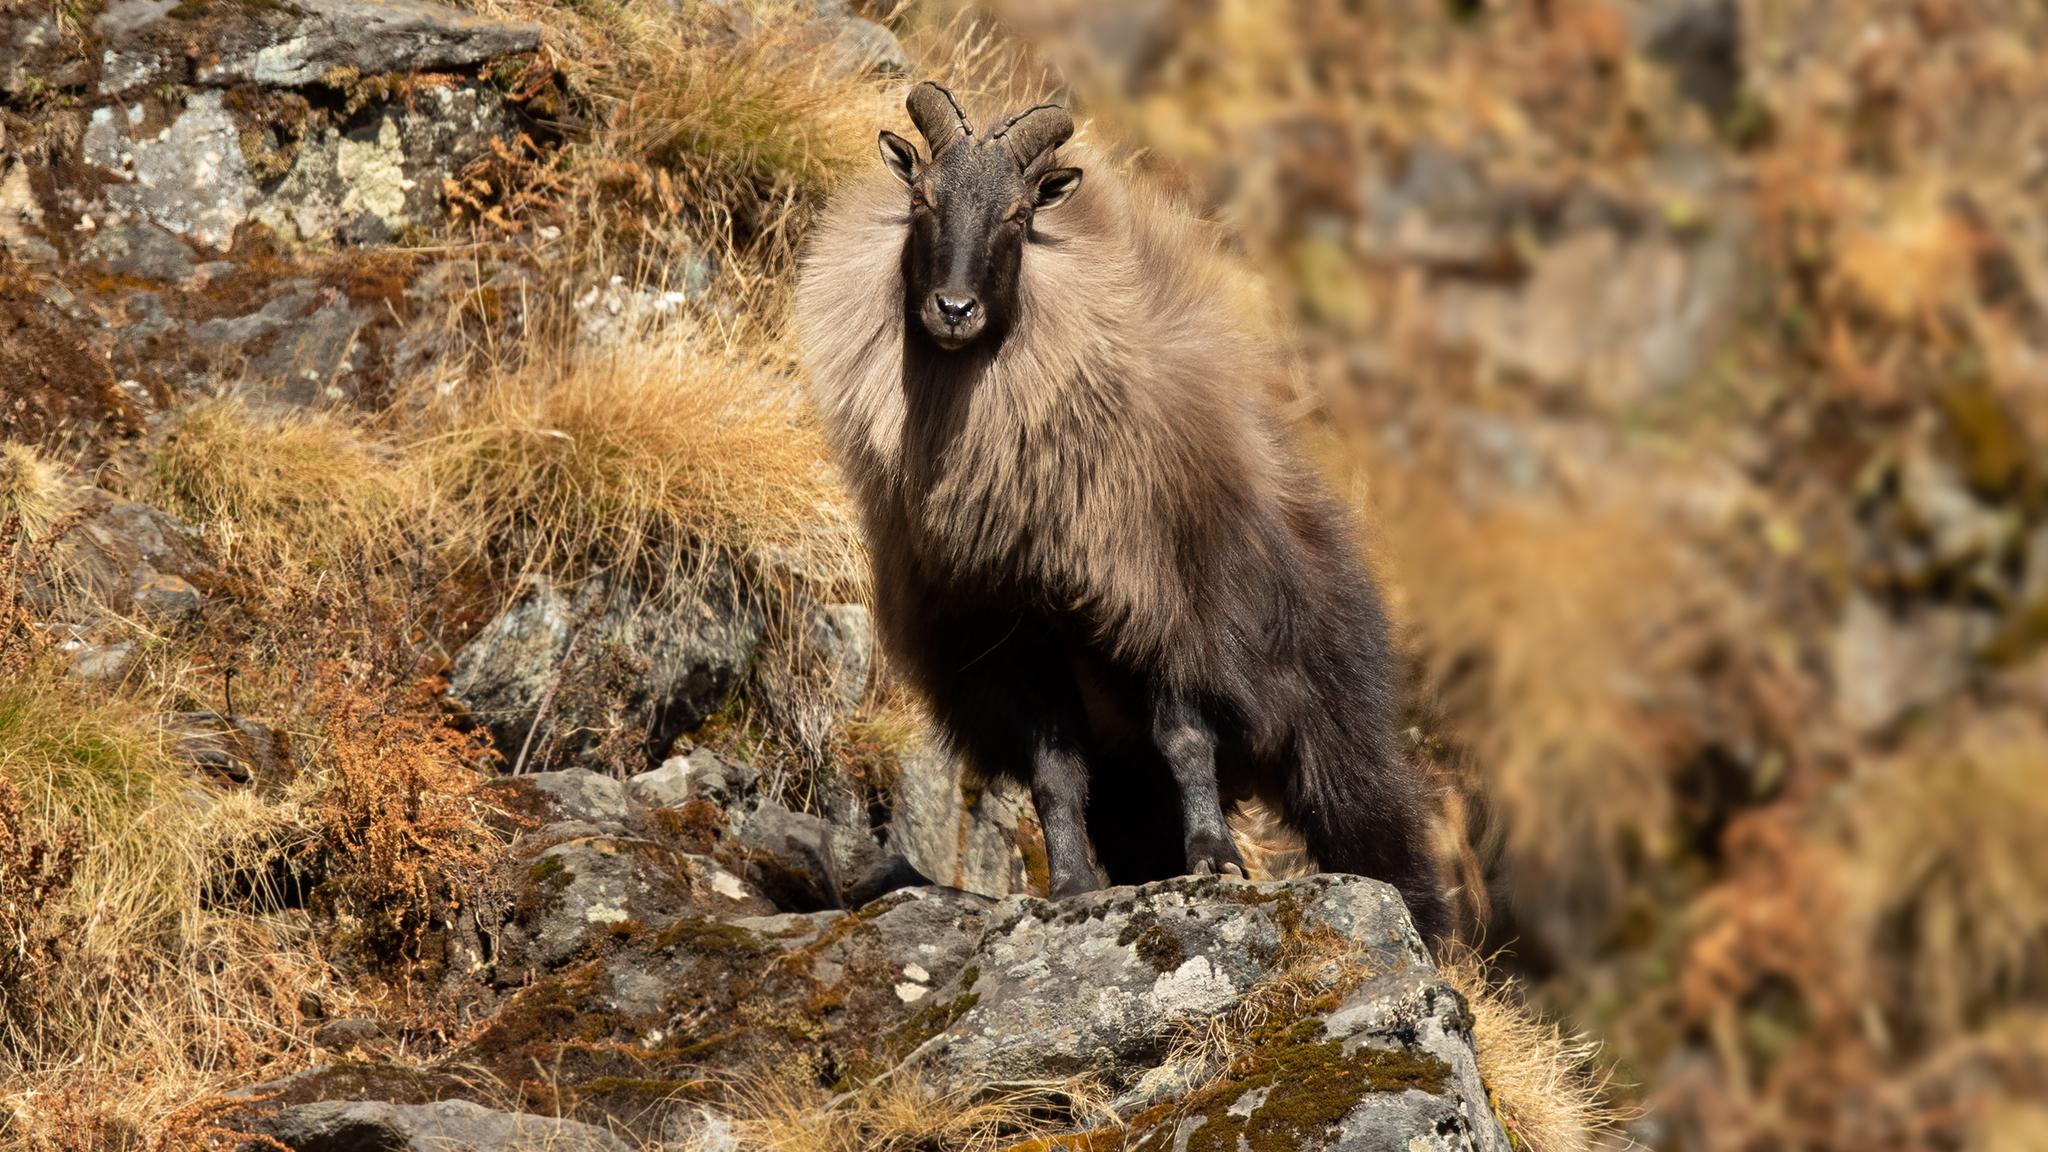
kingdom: Animalia
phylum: Chordata
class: Mammalia
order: Artiodactyla
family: Bovidae
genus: Hemitragus
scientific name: Hemitragus jemlahicus
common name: Himalayan tahr
